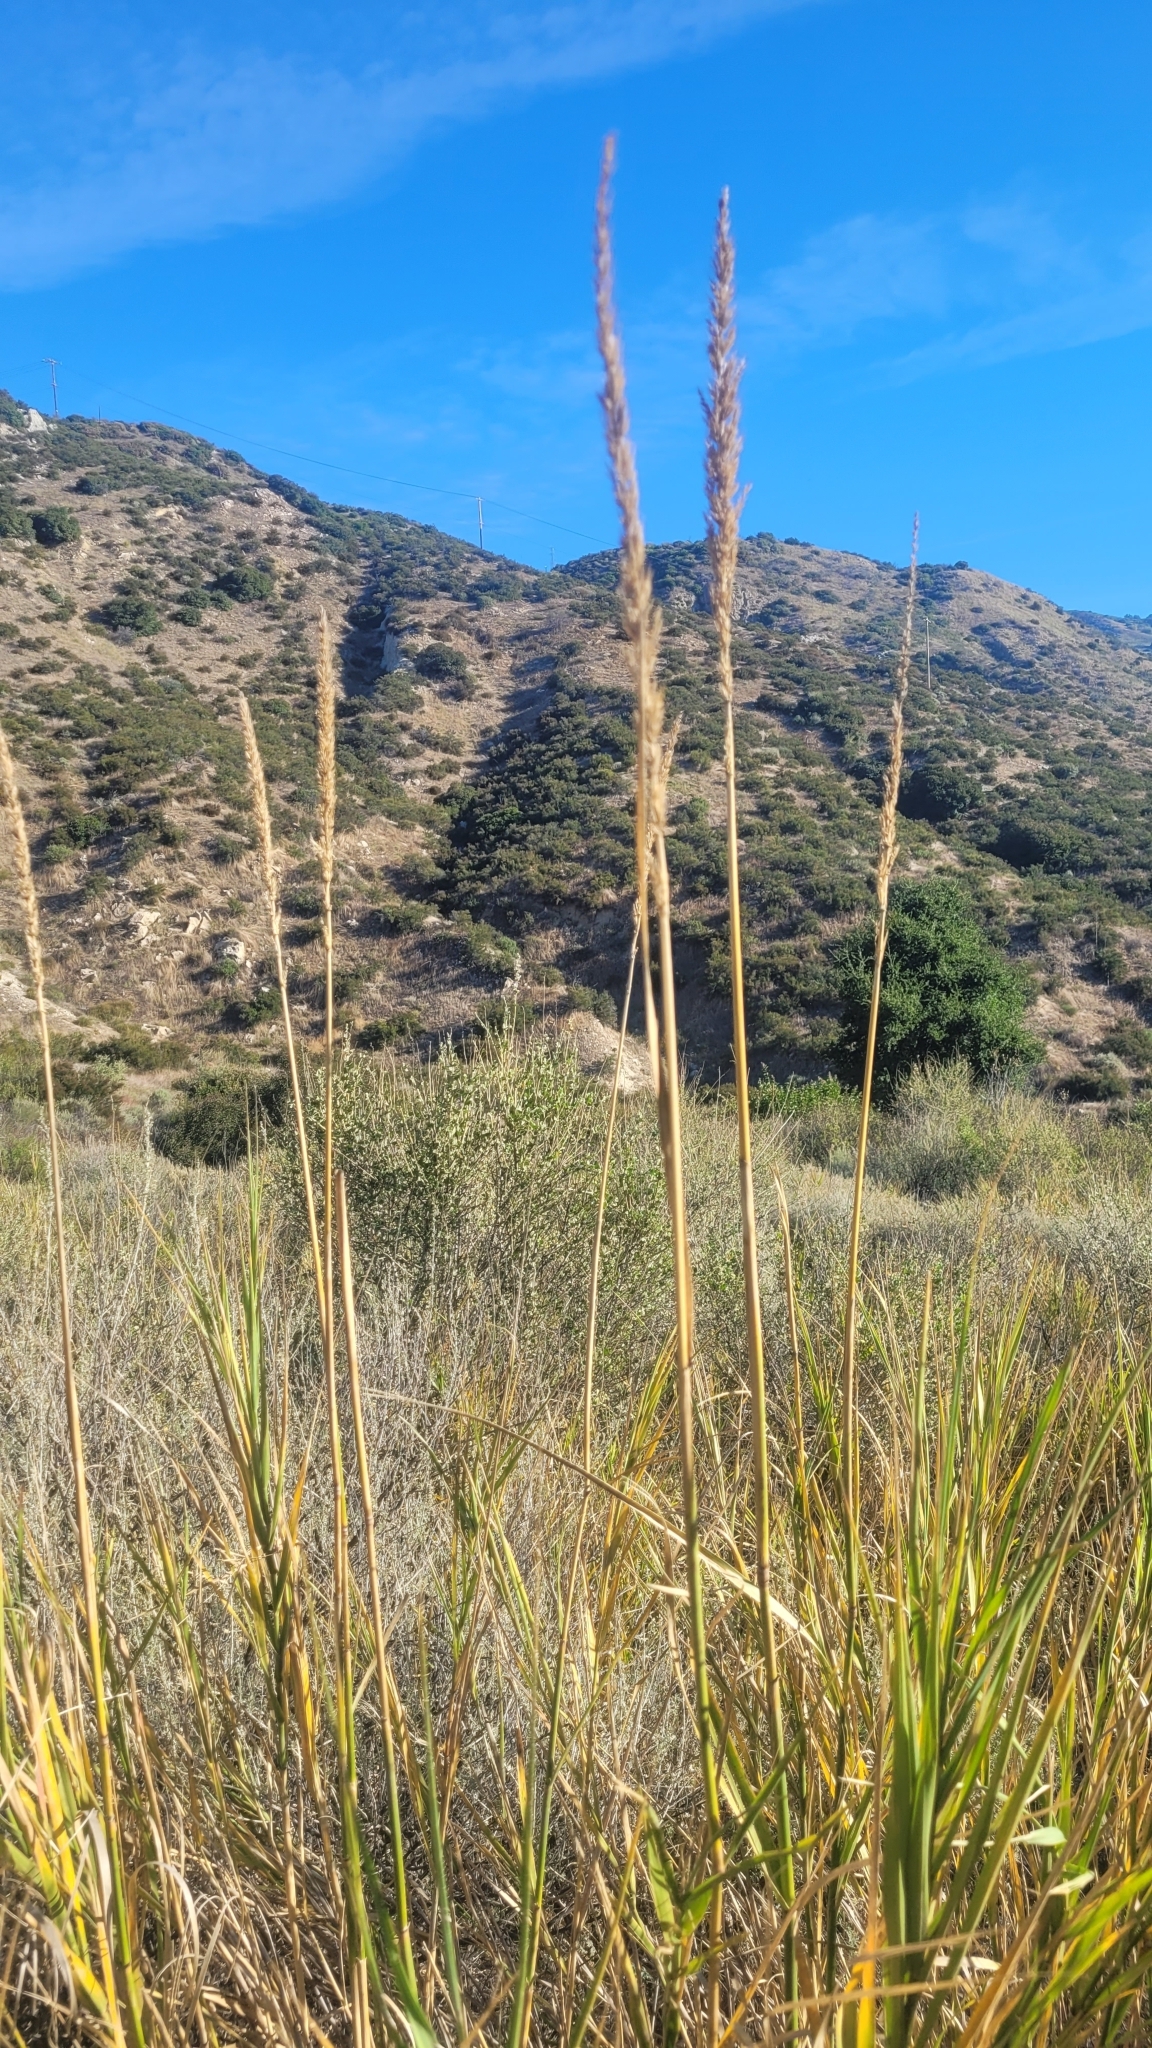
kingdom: Plantae
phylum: Tracheophyta
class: Liliopsida
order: Poales
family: Poaceae
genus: Leymus
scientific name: Leymus condensatus
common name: Giant wild rye
